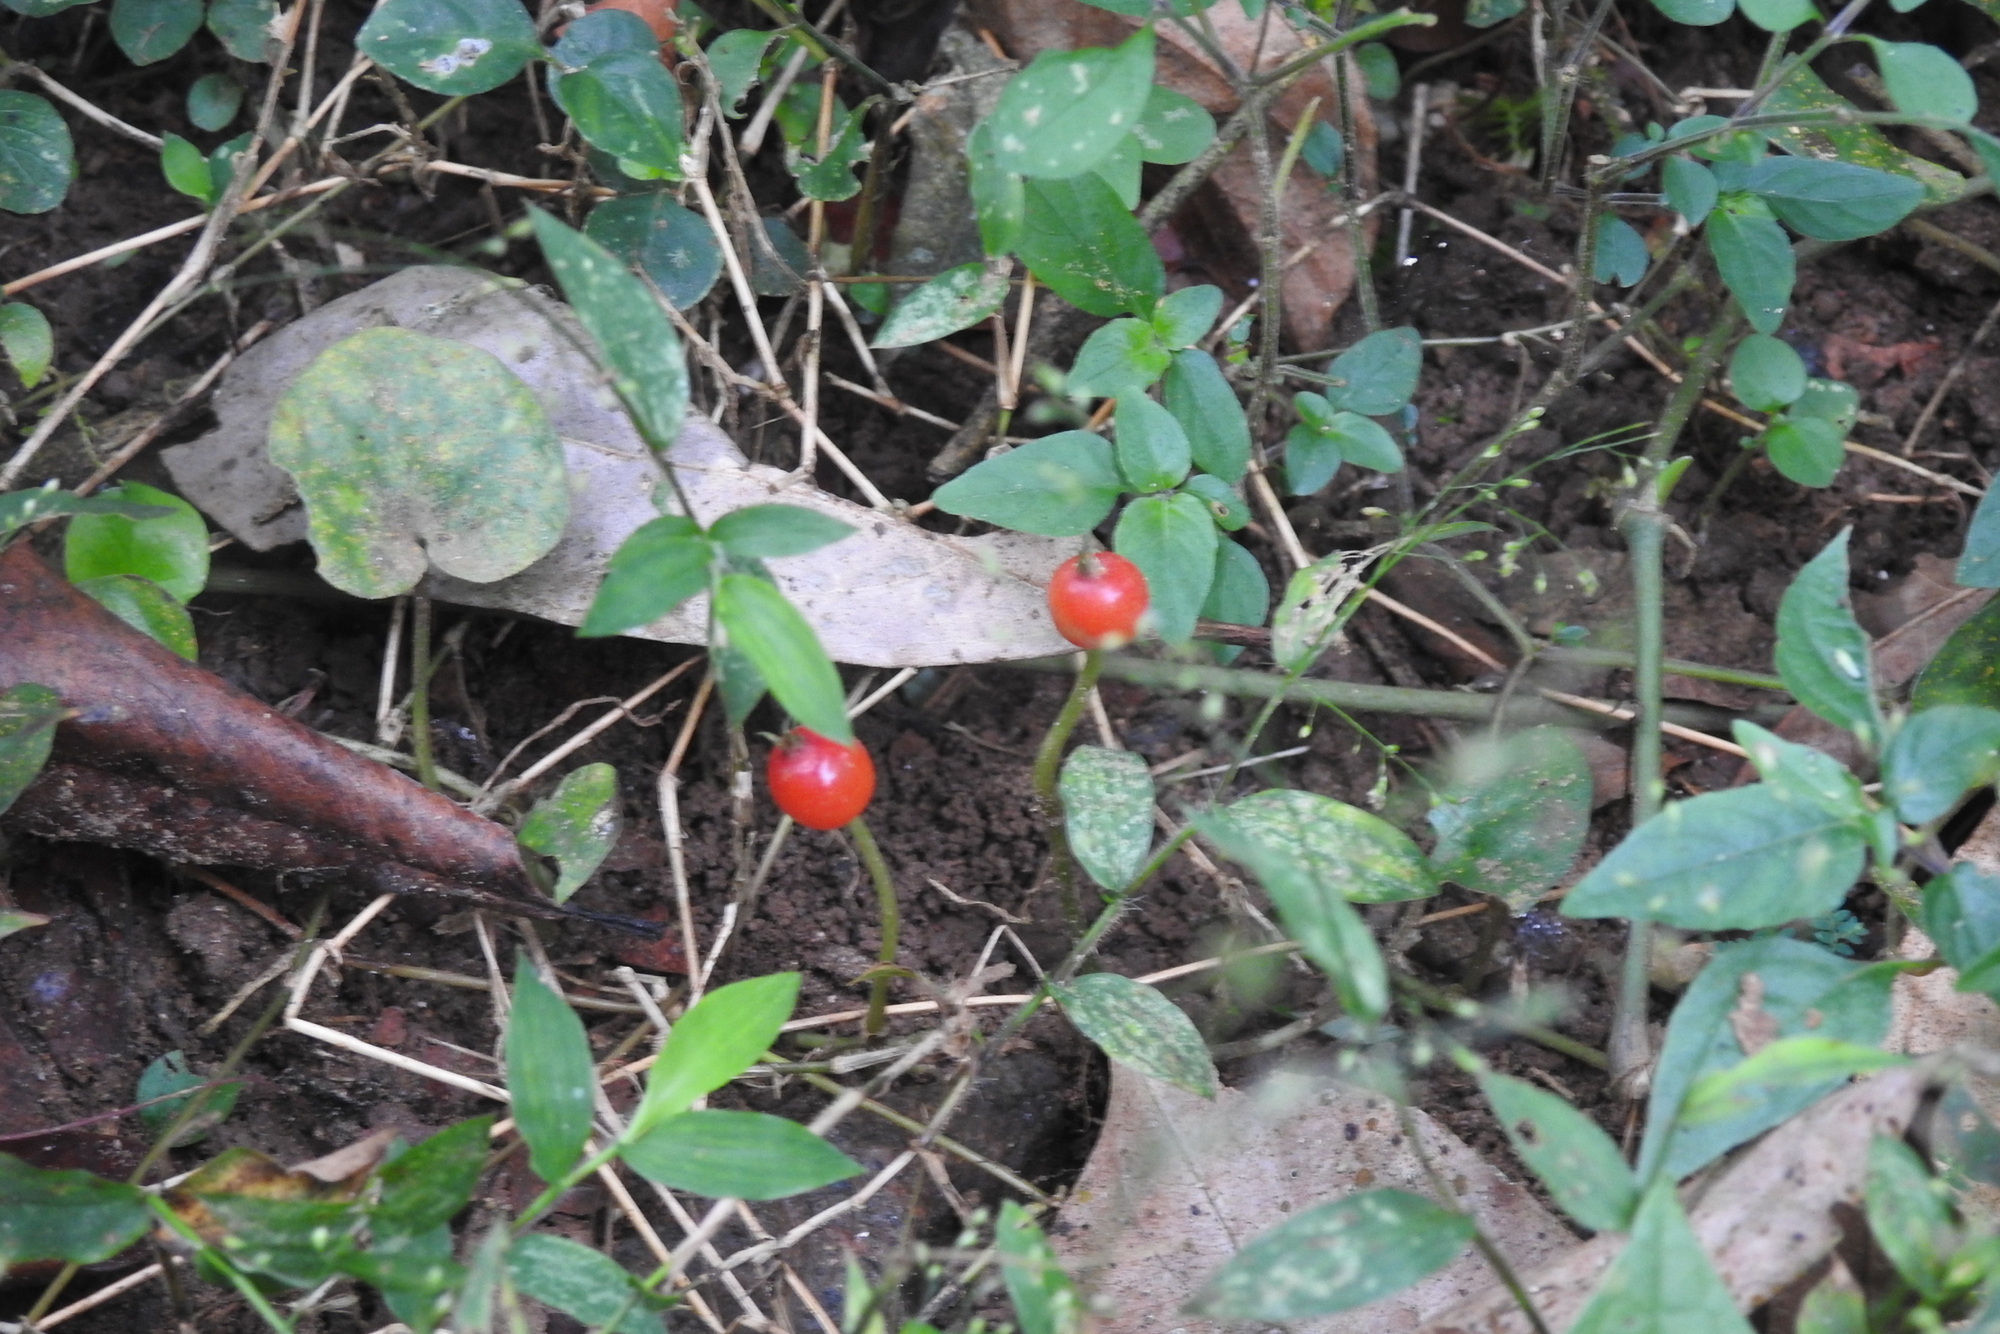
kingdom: Plantae
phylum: Tracheophyta
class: Magnoliopsida
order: Gentianales
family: Rubiaceae
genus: Geophila
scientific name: Geophila herbacea
